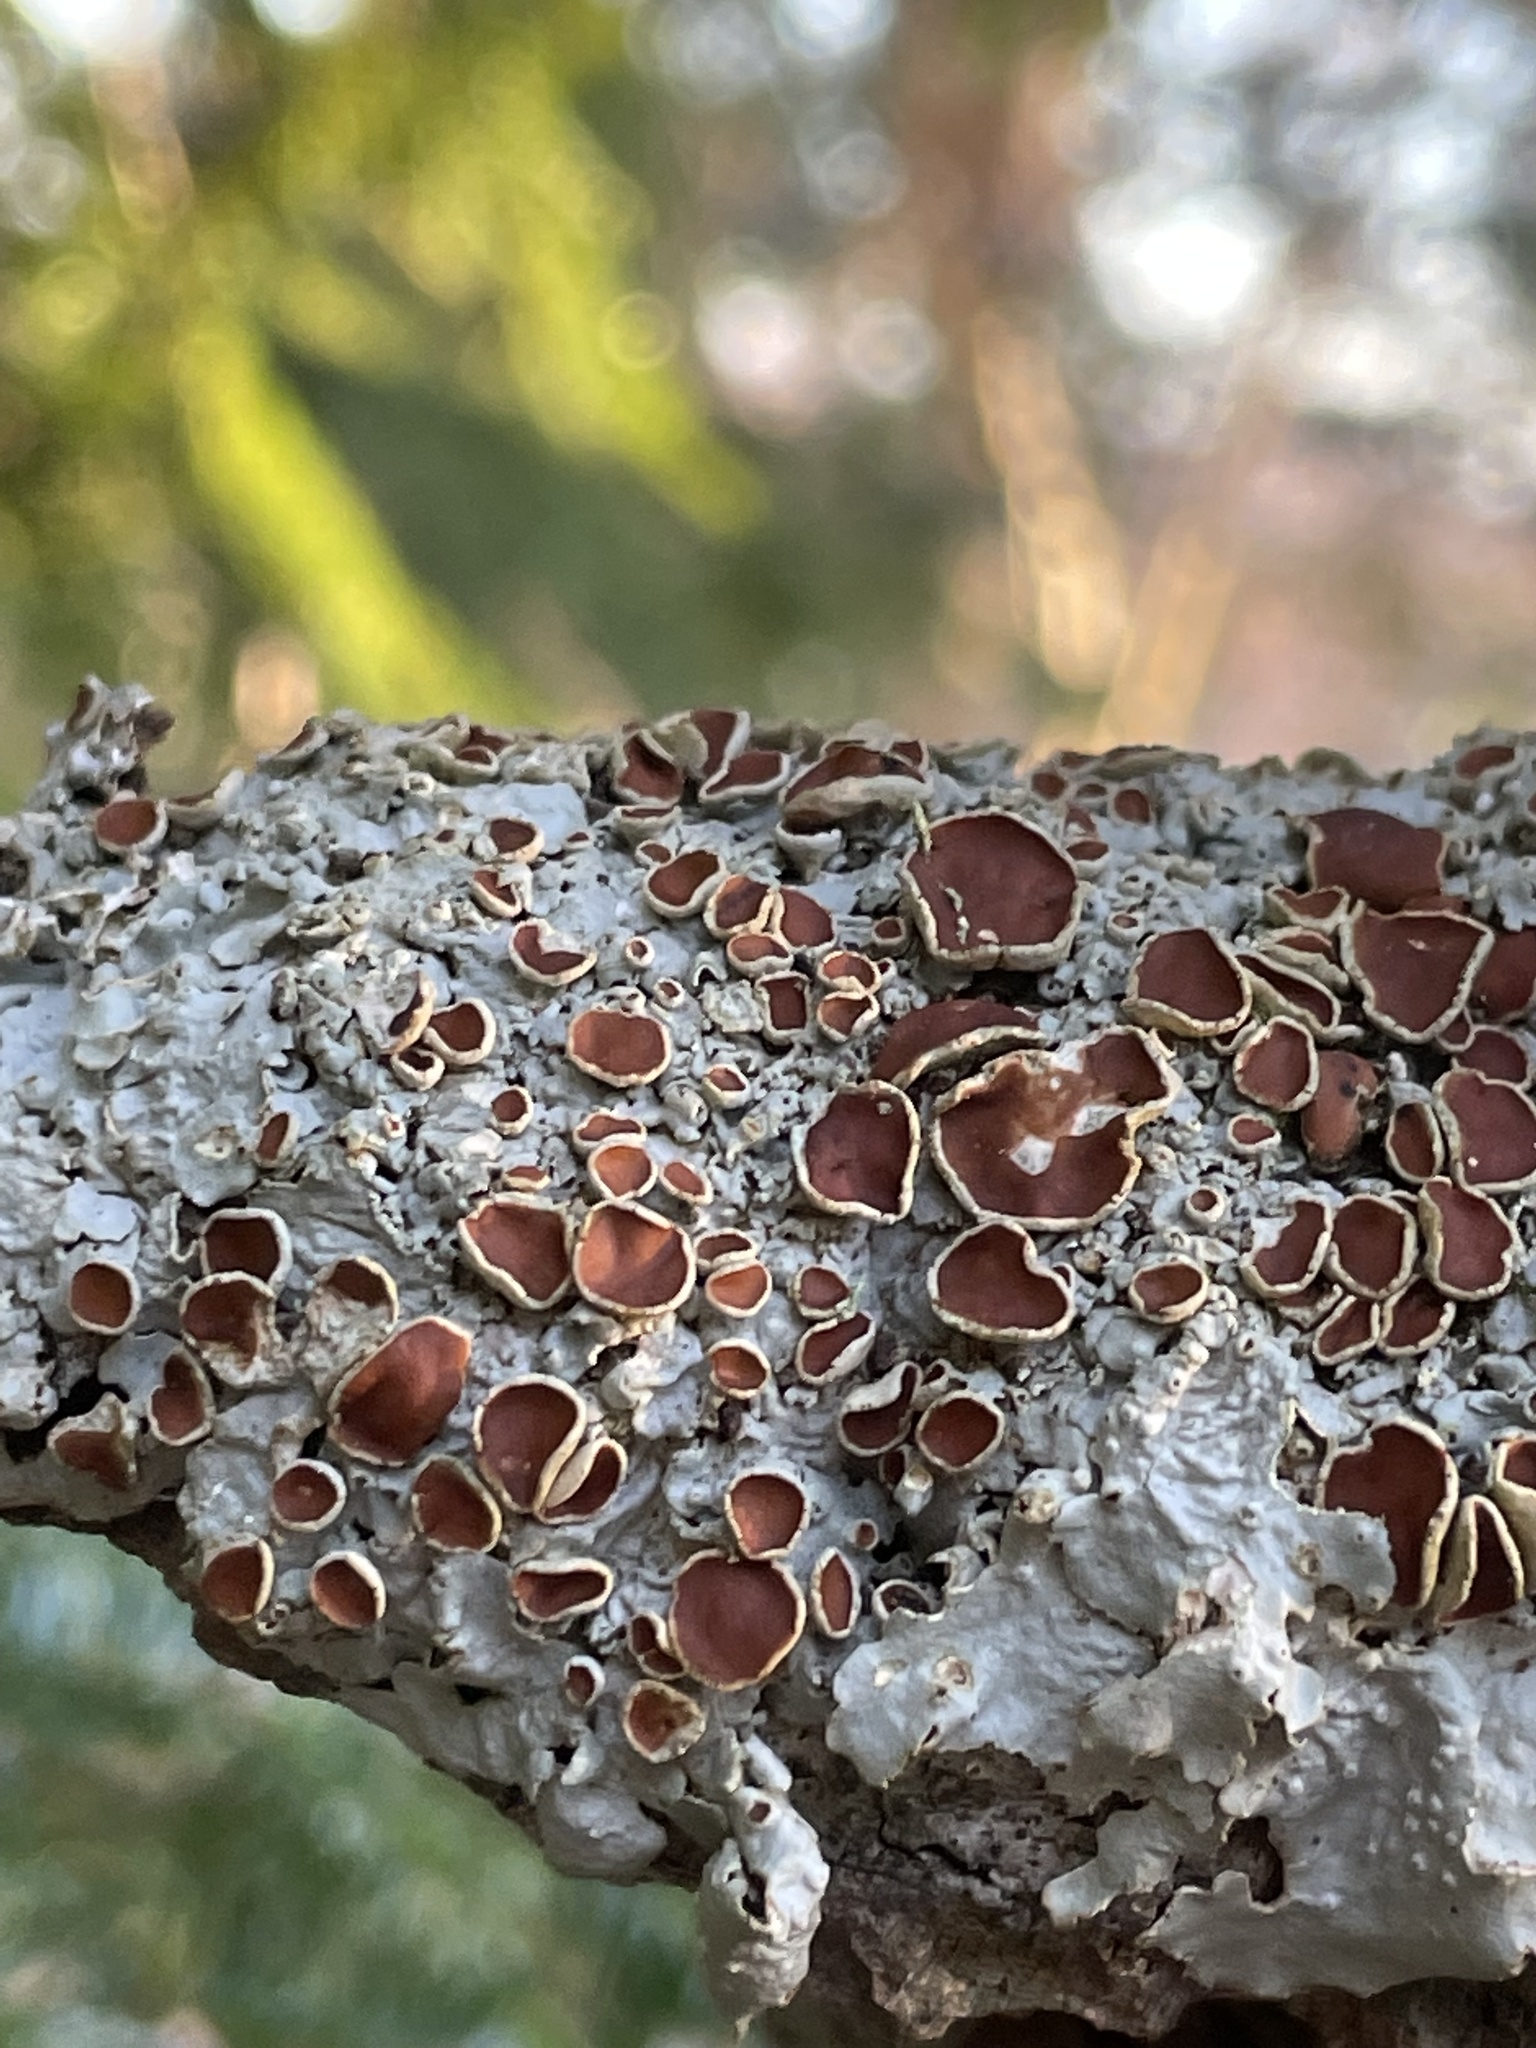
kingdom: Fungi
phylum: Ascomycota
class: Lecanoromycetes
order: Peltigerales
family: Lobariaceae
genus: Ricasolia
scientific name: Ricasolia quercizans
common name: Smooth lungwort
